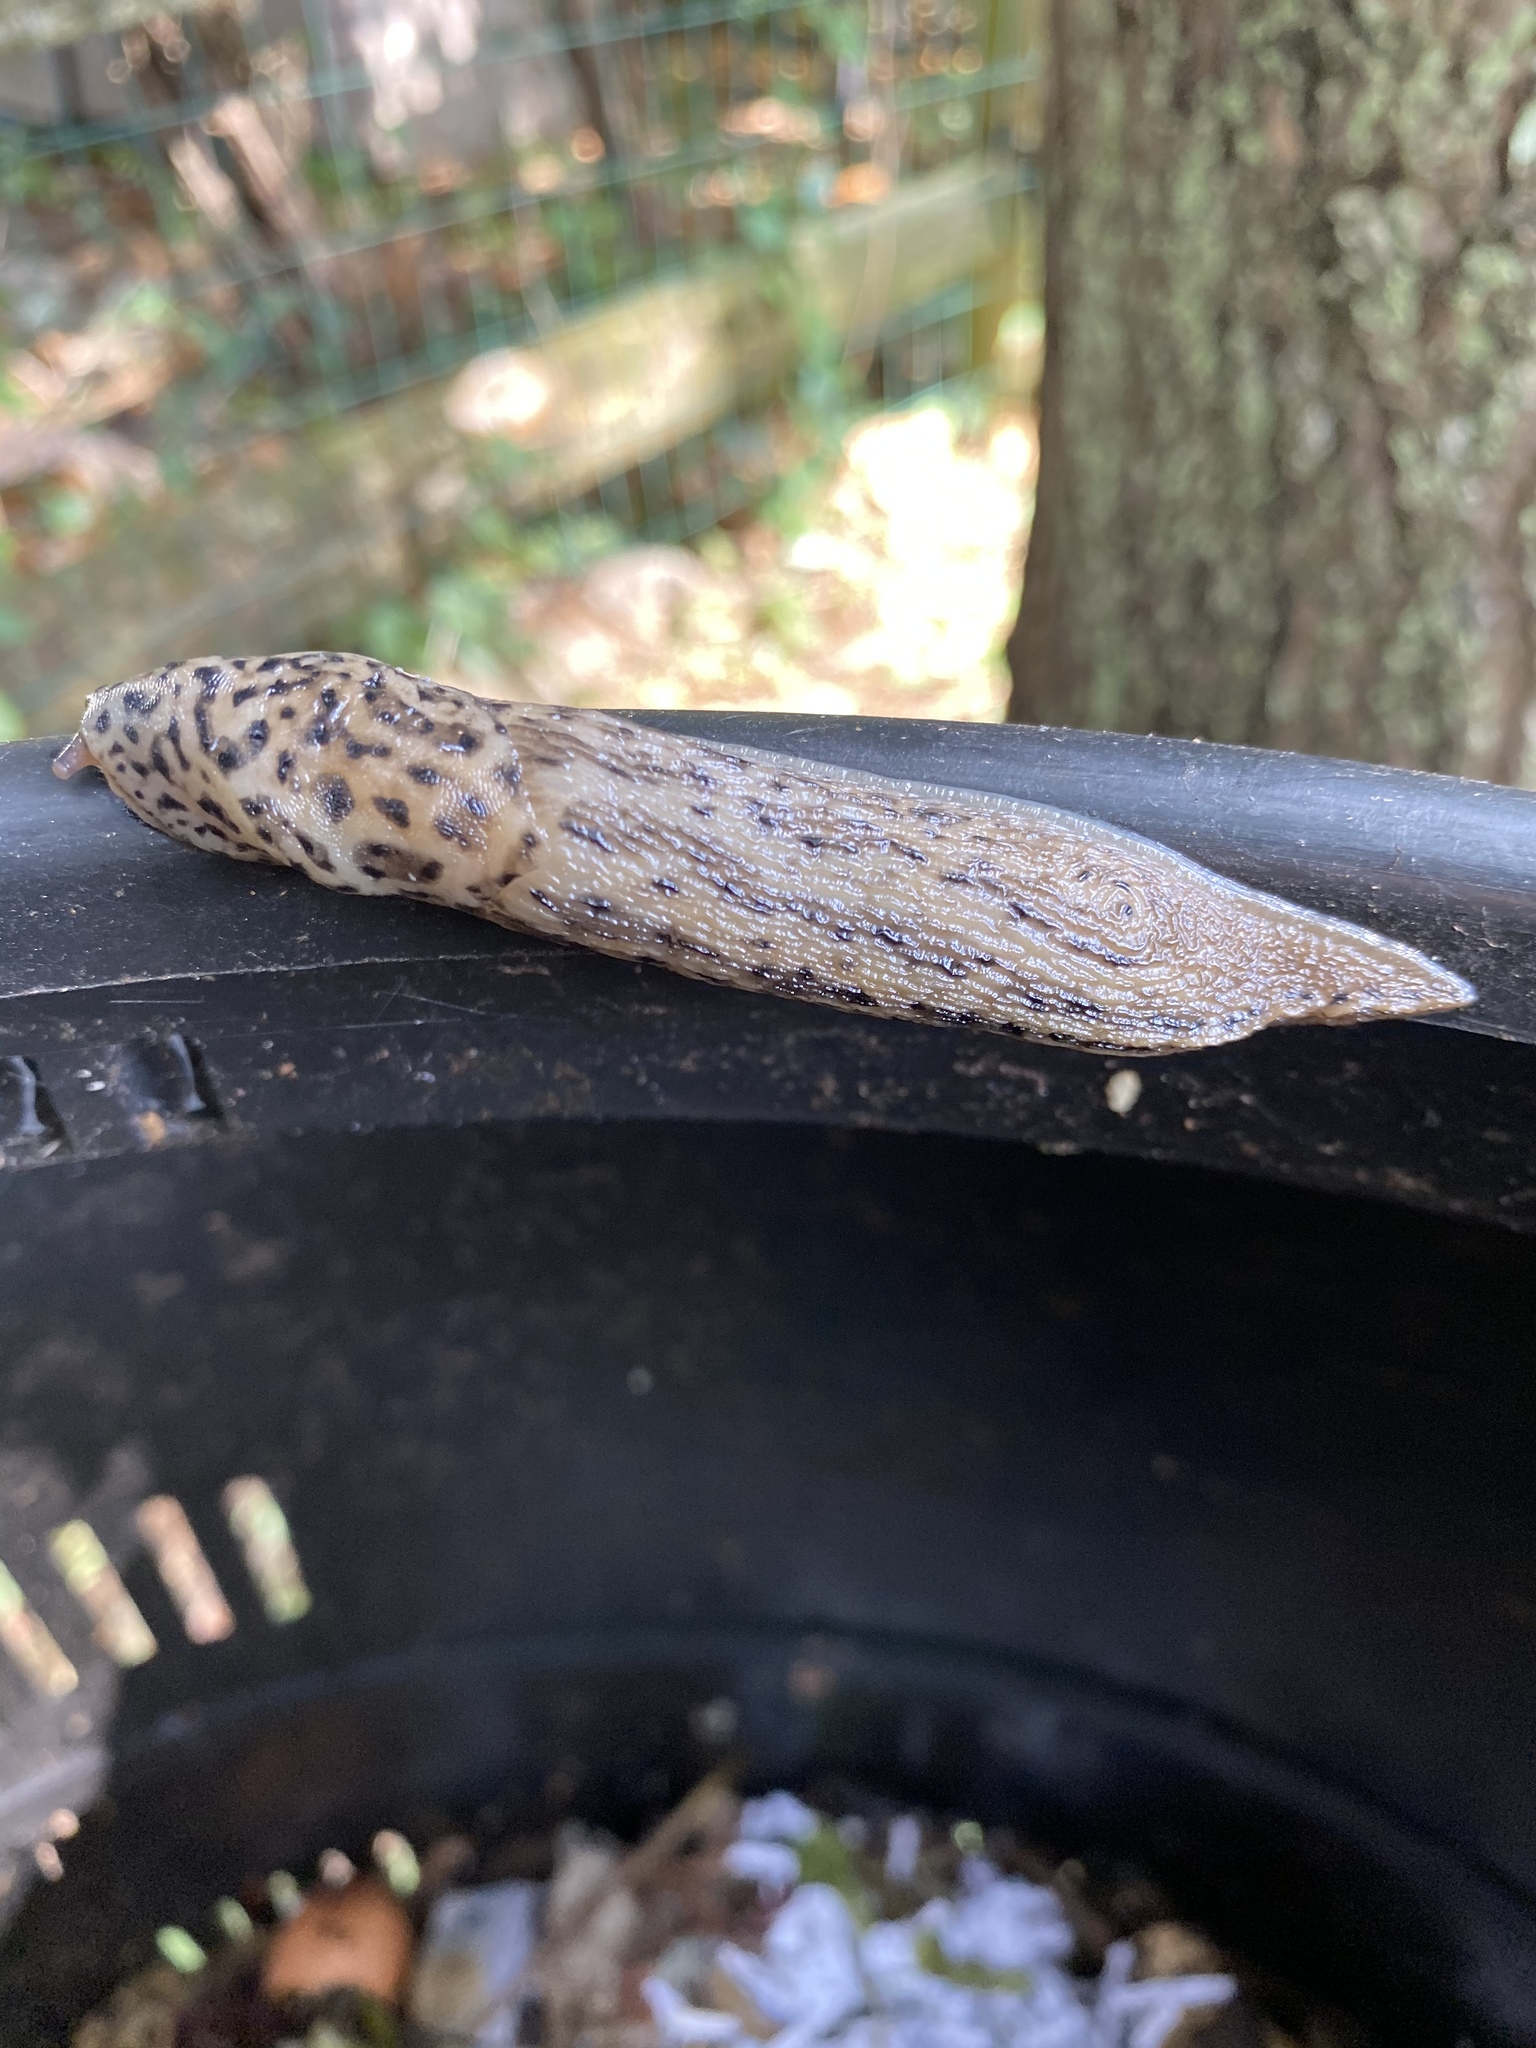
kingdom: Animalia
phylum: Mollusca
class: Gastropoda
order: Stylommatophora
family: Limacidae
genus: Limax
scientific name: Limax maximus
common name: Great grey slug
